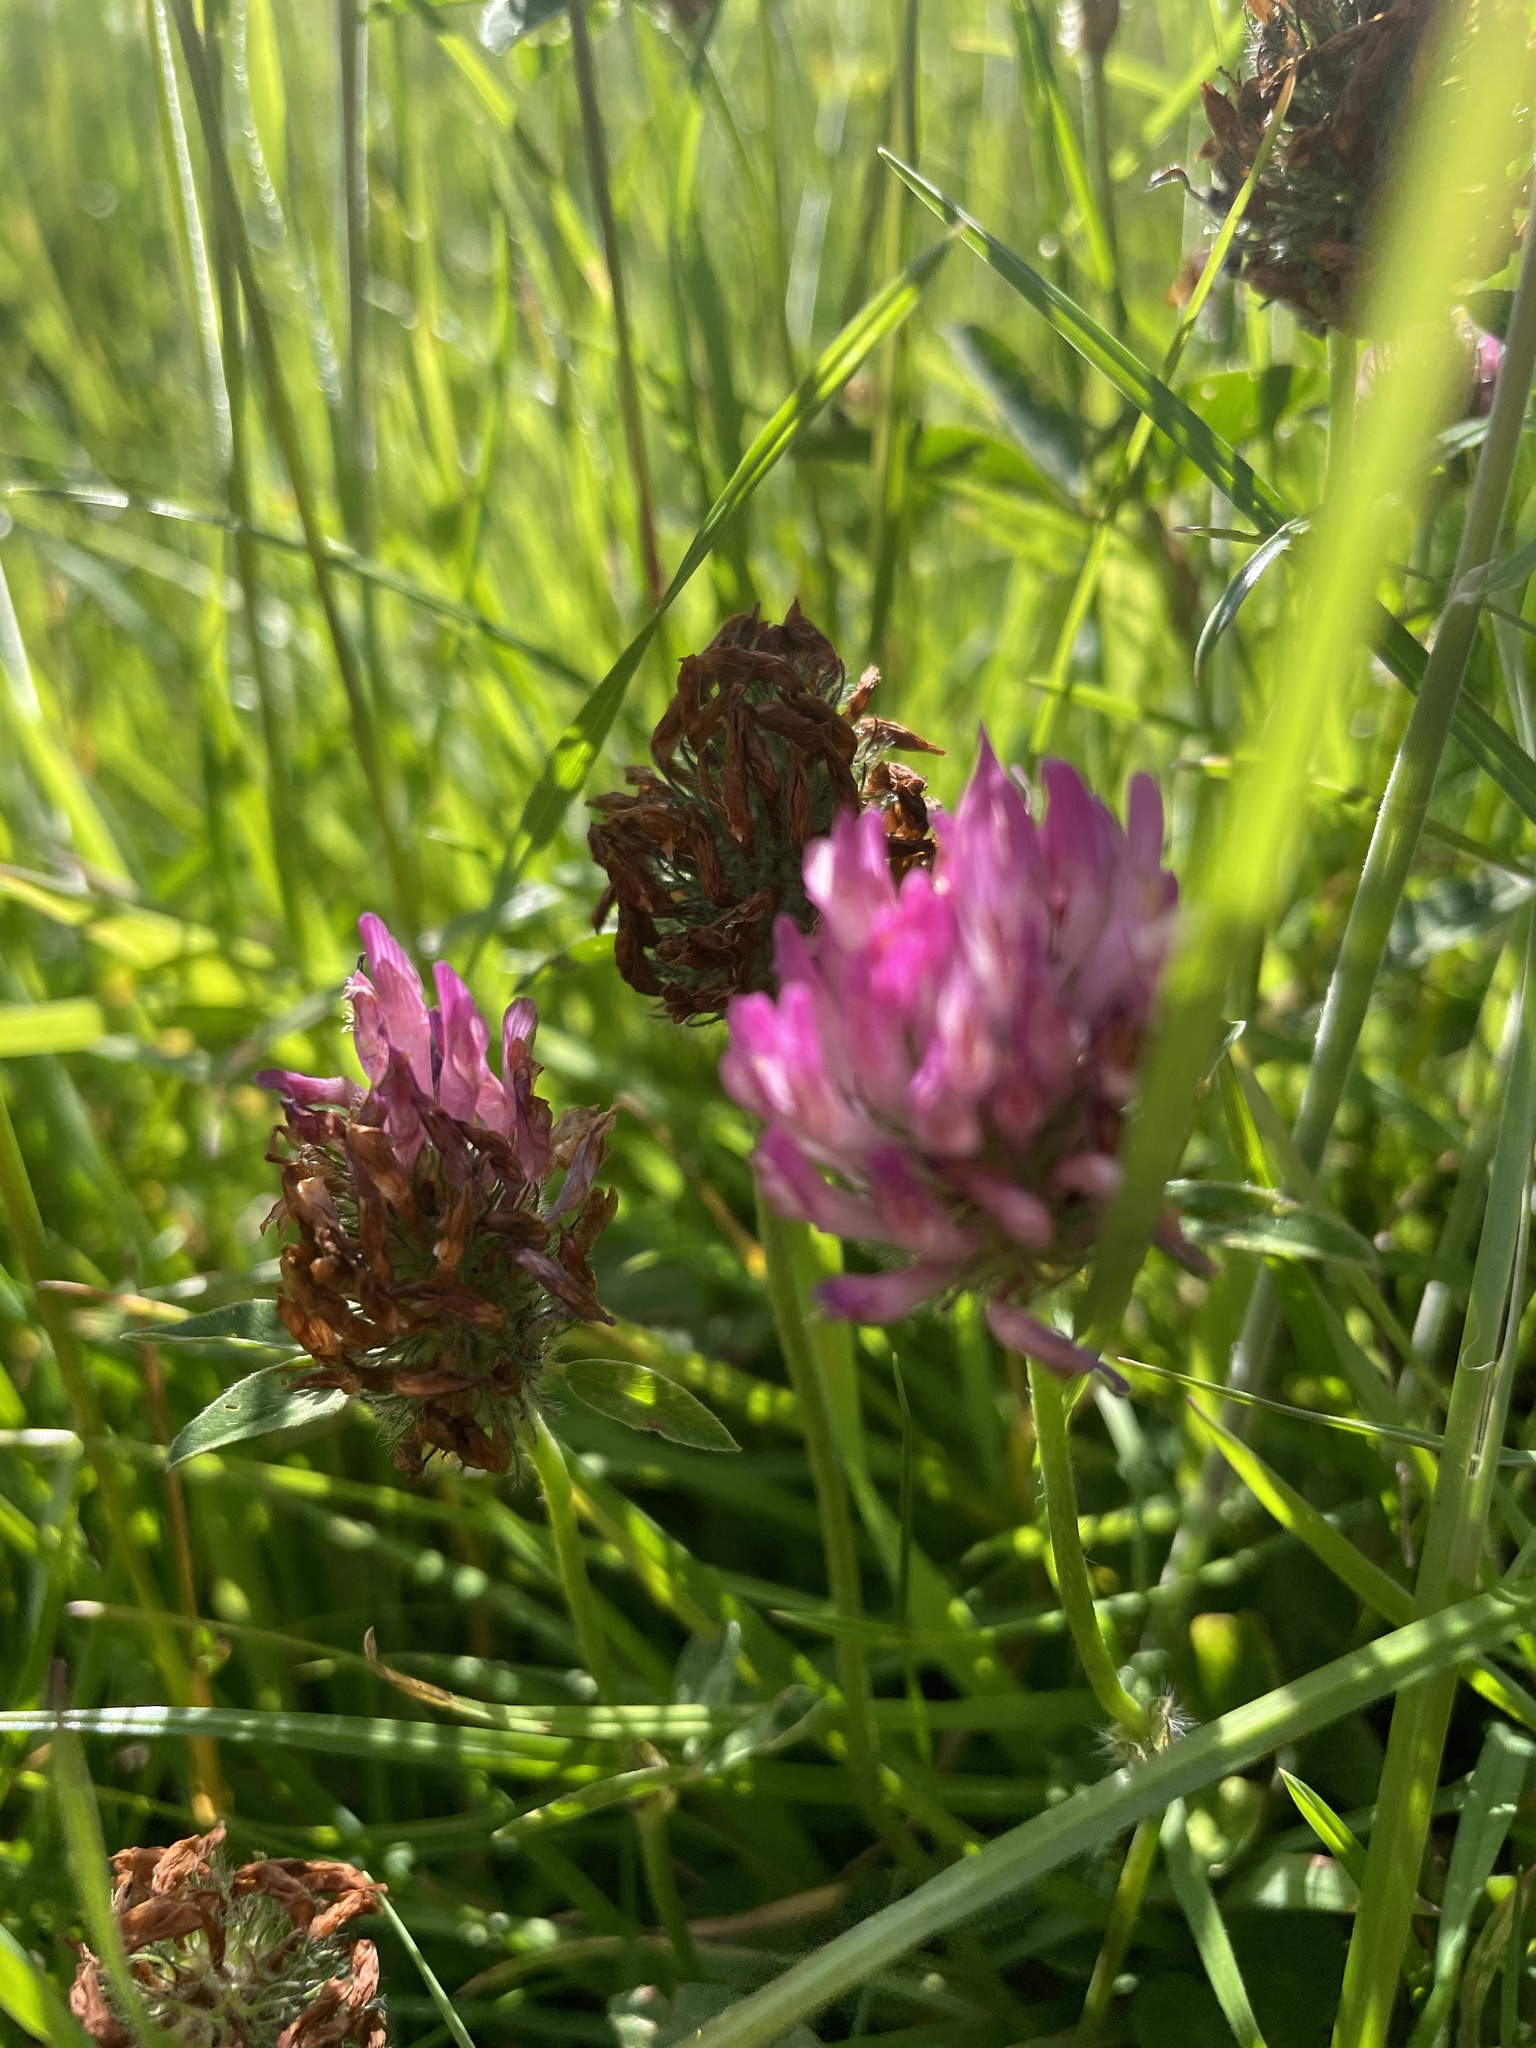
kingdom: Plantae
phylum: Tracheophyta
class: Magnoliopsida
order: Fabales
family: Fabaceae
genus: Trifolium
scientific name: Trifolium pratense
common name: Red clover
